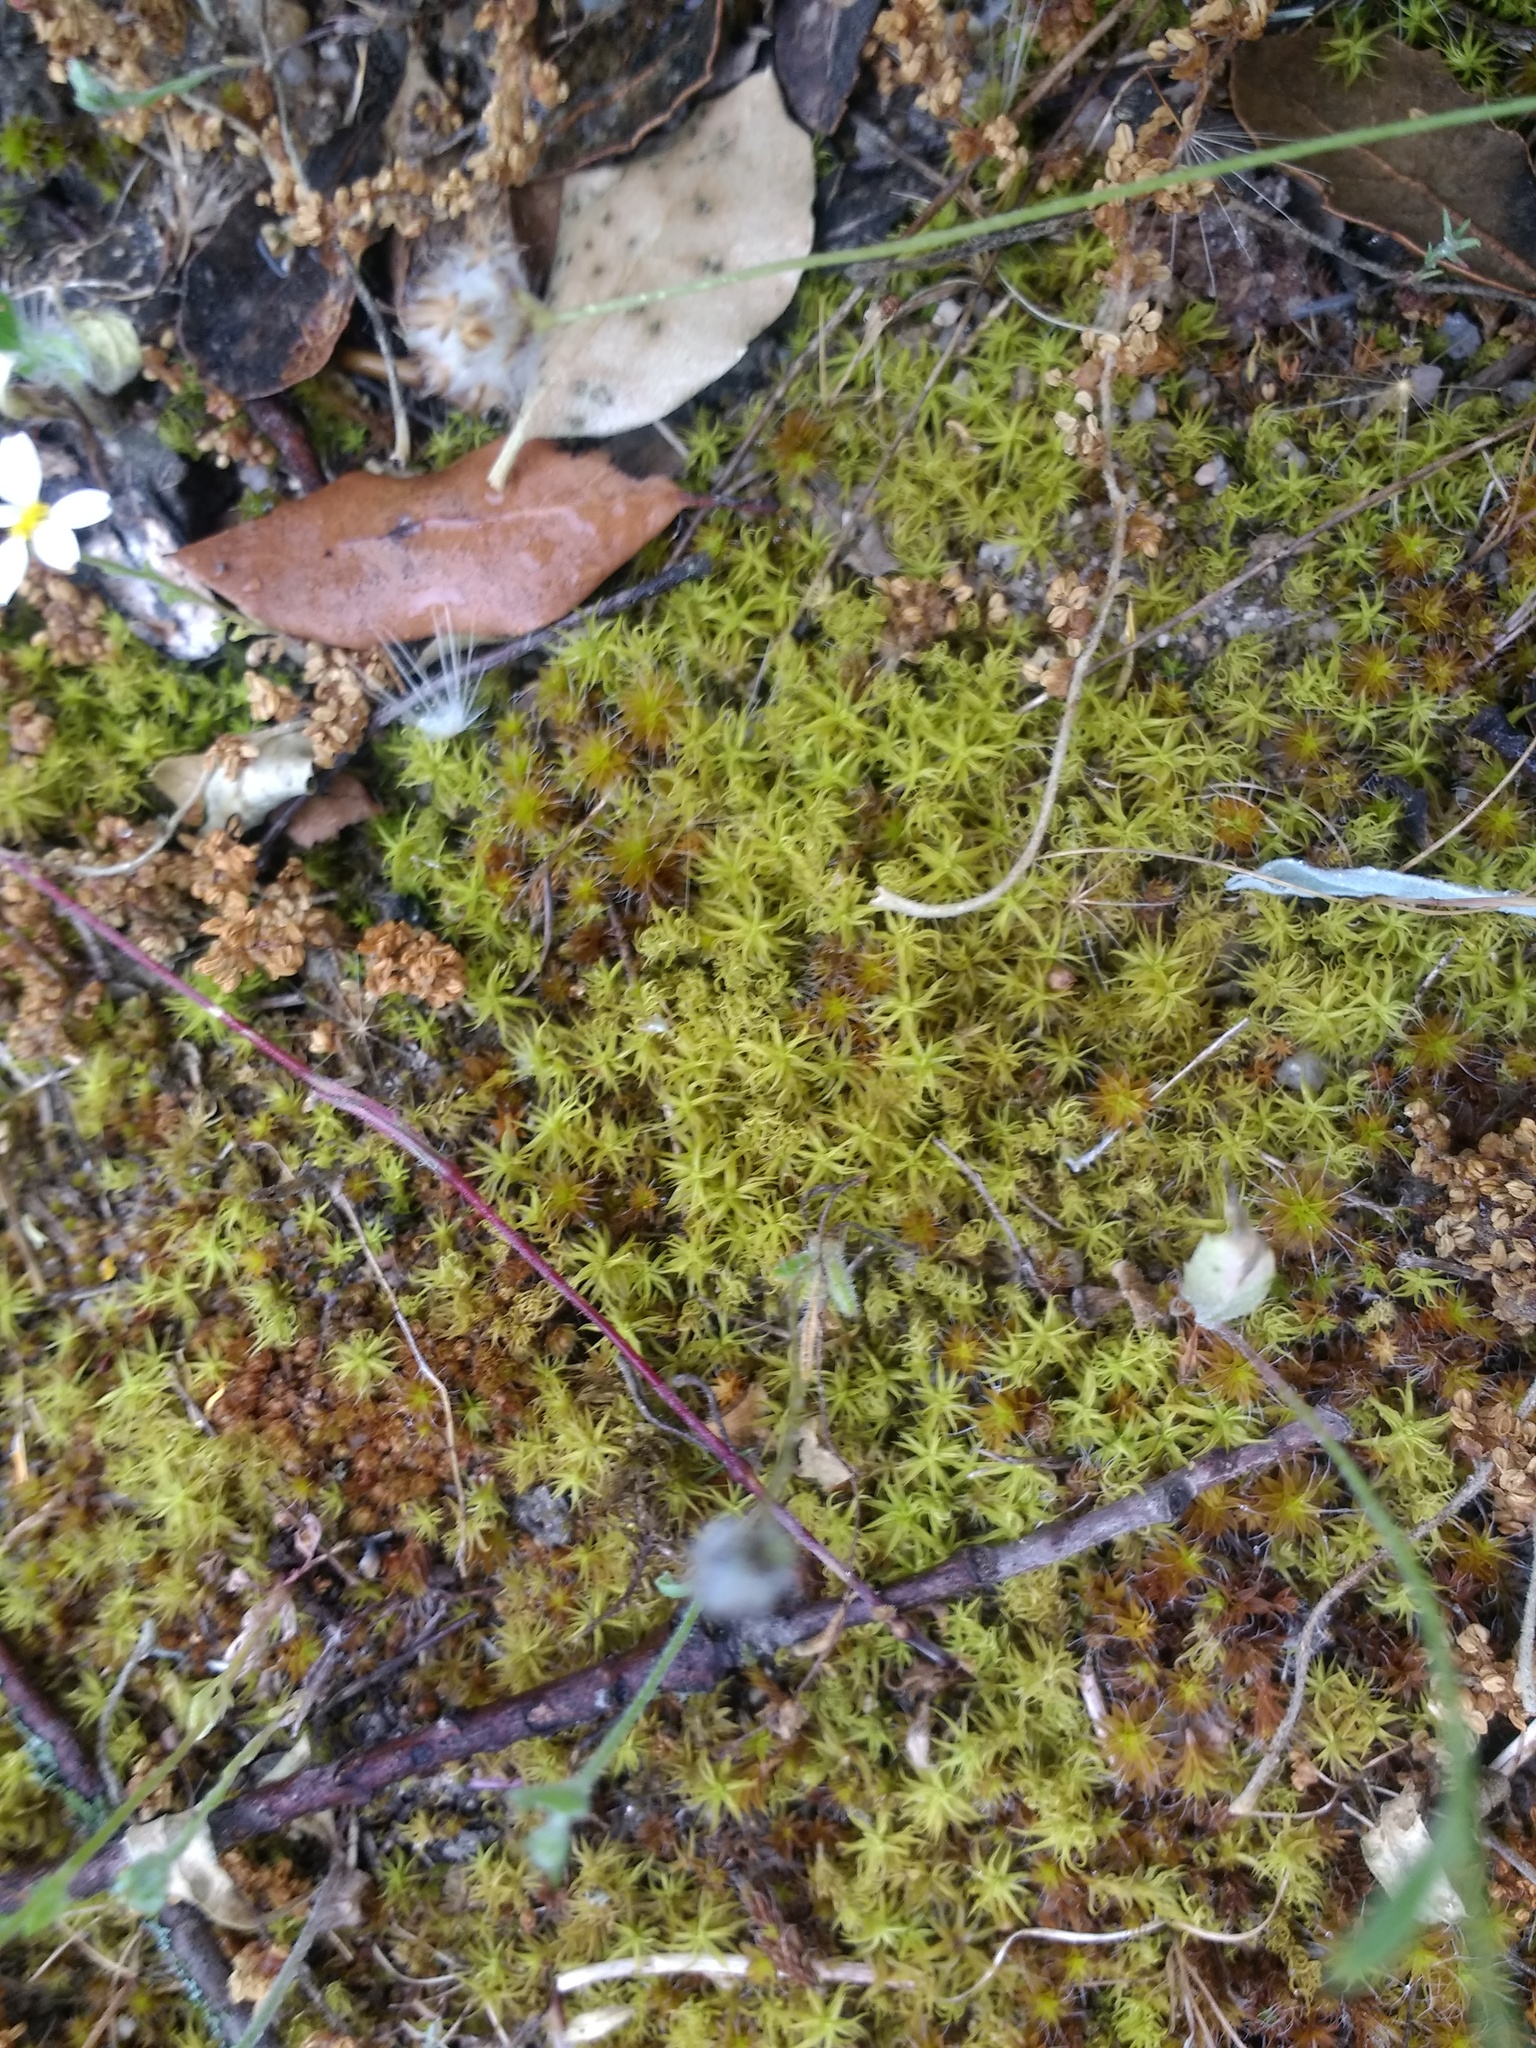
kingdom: Plantae
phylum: Bryophyta
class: Bryopsida
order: Pottiales
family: Pottiaceae
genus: Pleurochaete
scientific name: Pleurochaete squarrosa
